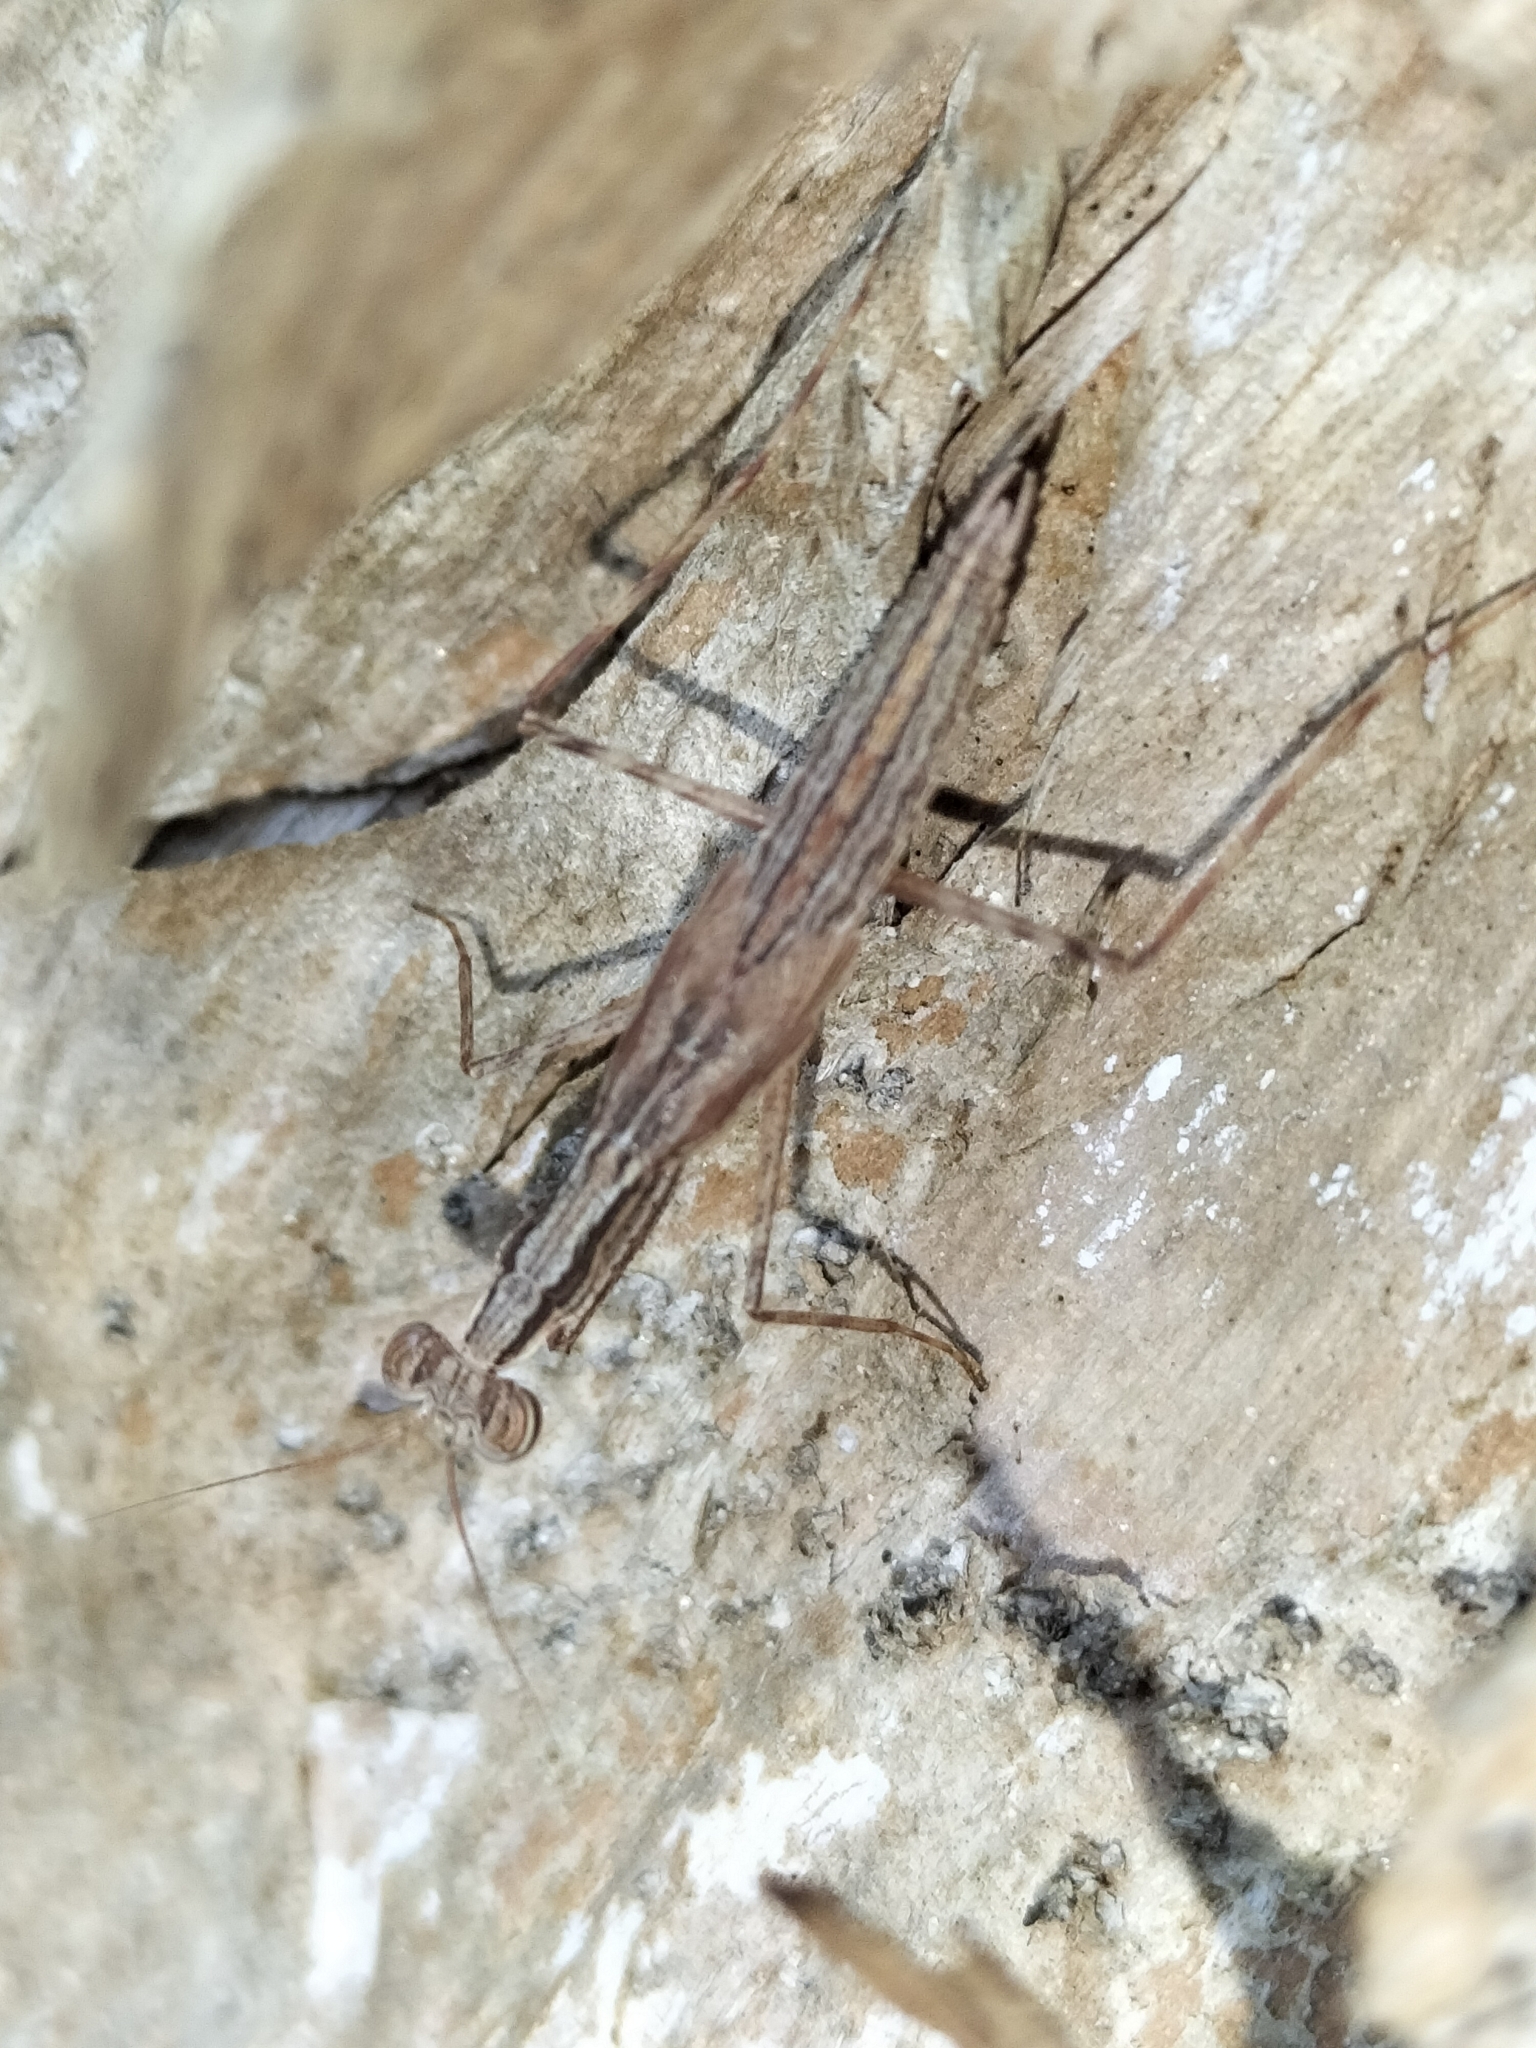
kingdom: Animalia
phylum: Arthropoda
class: Insecta
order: Mantodea
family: Nanomantidae
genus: Ima
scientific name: Ima fusca
